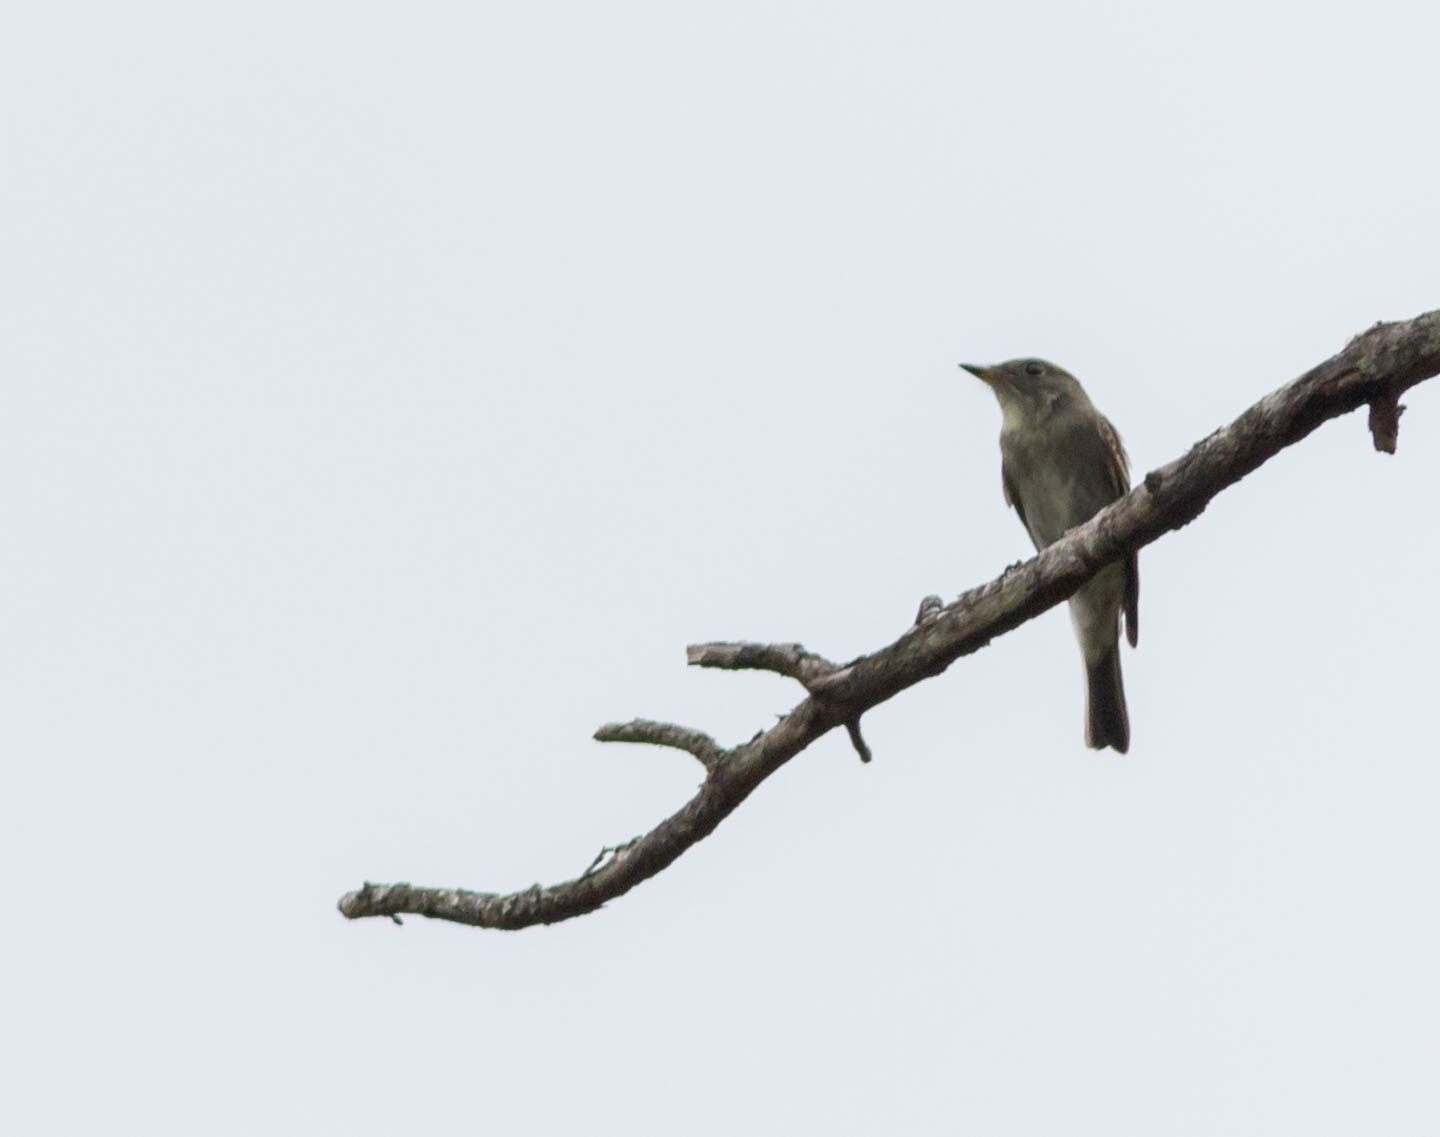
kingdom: Animalia
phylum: Chordata
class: Aves
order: Passeriformes
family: Tyrannidae
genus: Contopus
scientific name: Contopus virens
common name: Eastern wood-pewee
